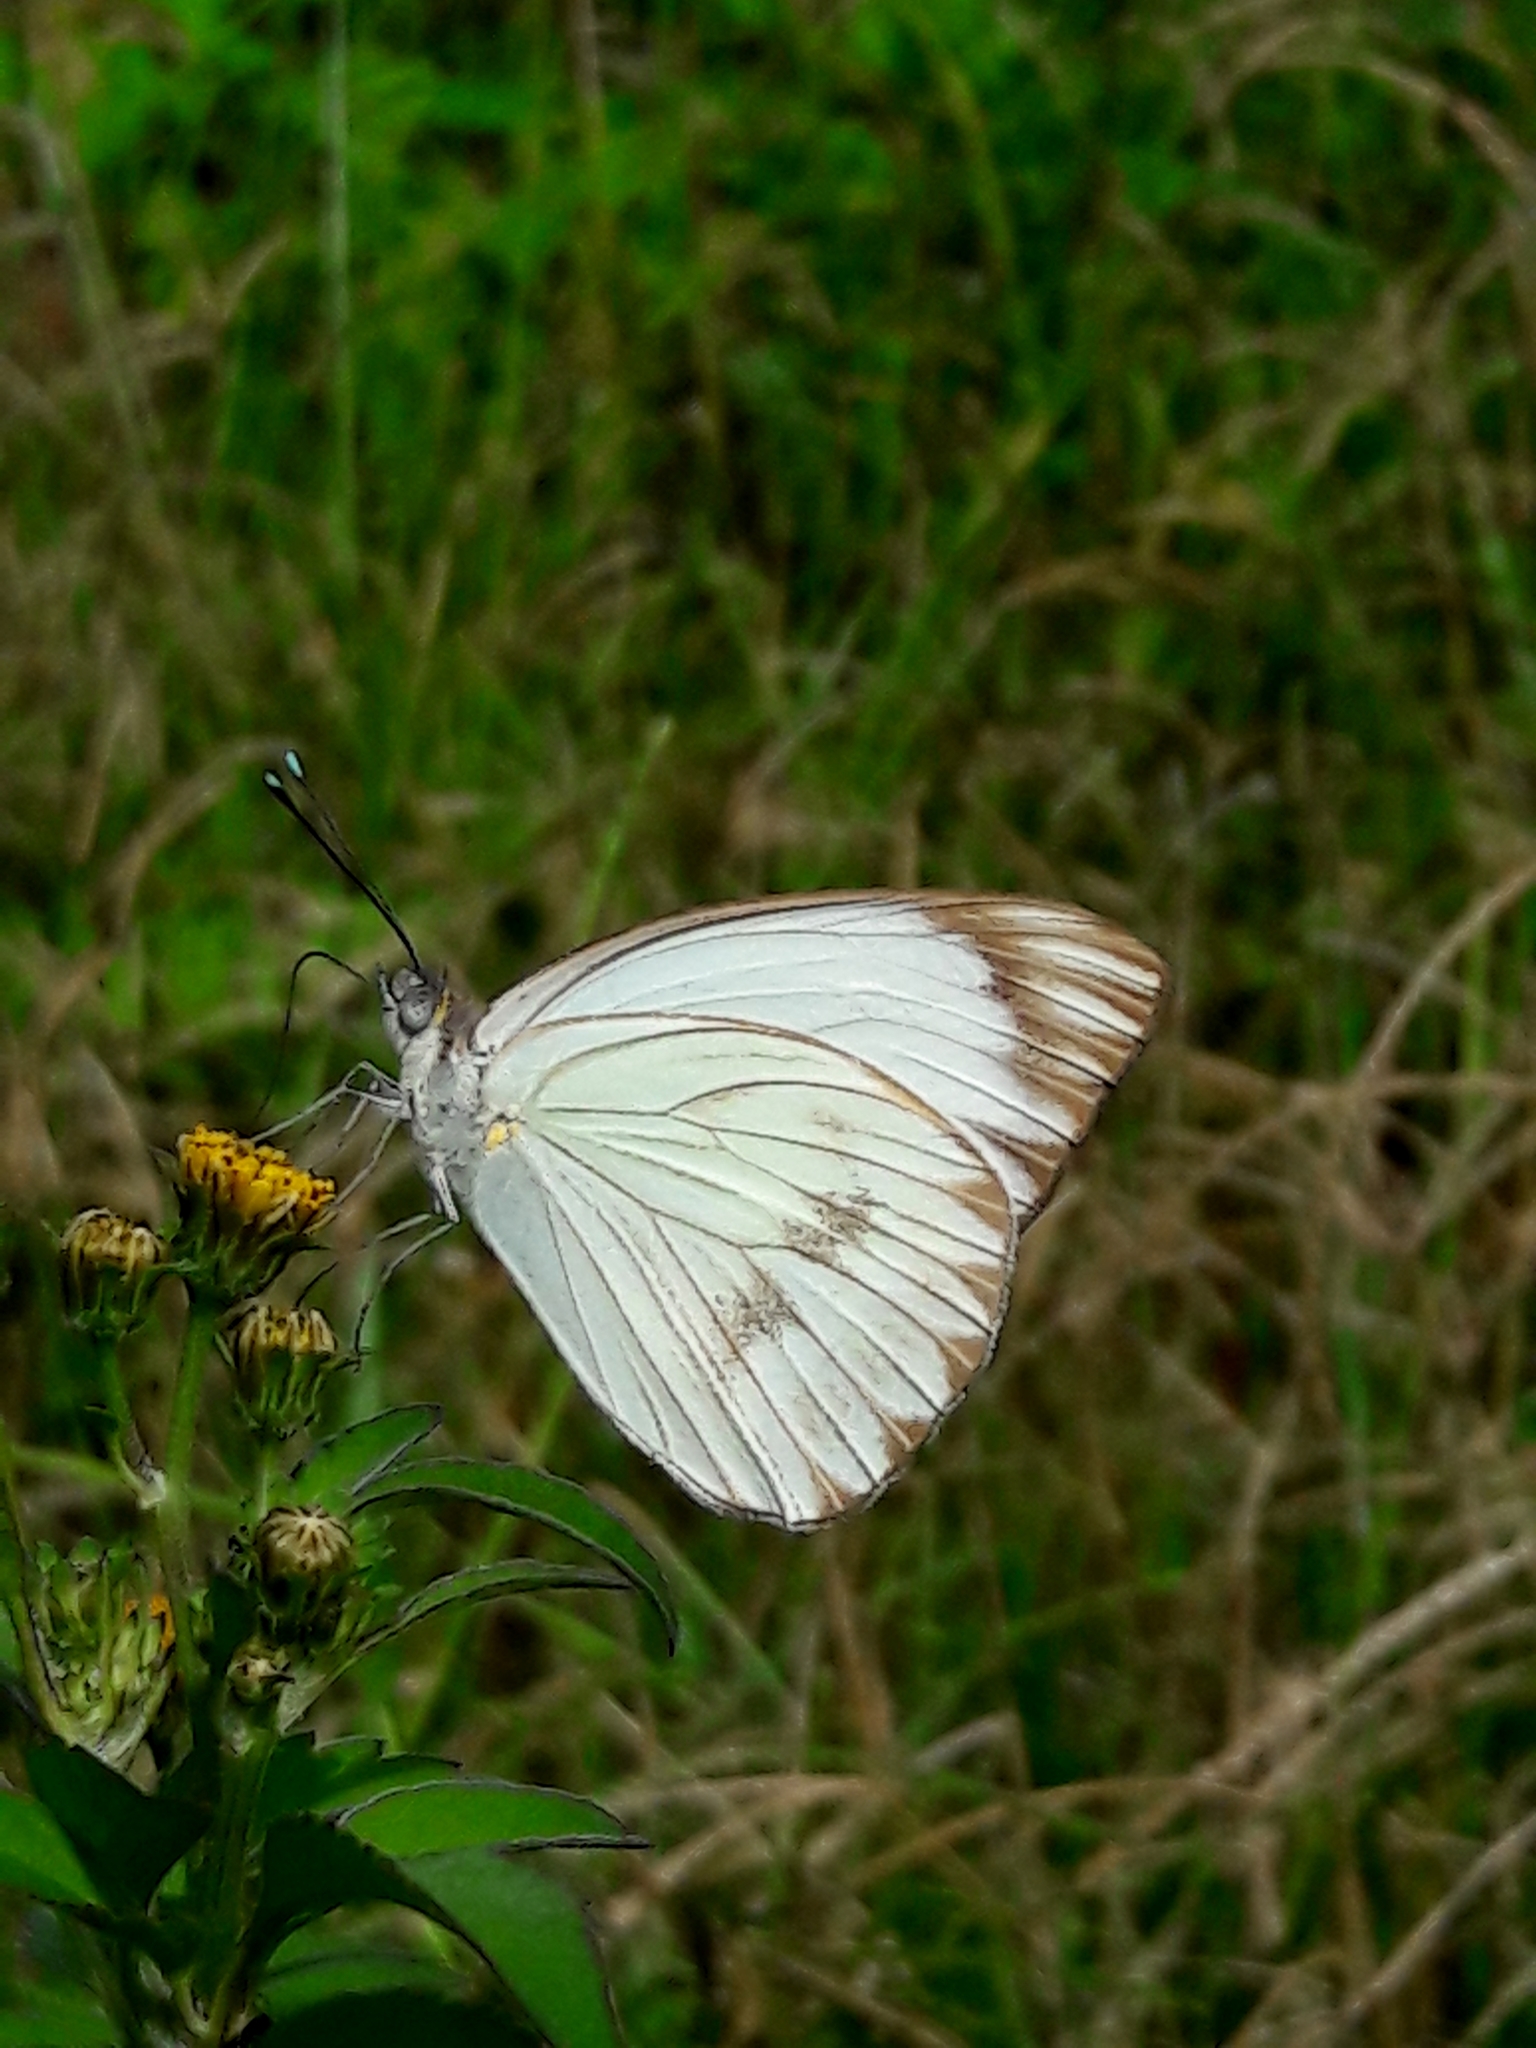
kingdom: Animalia
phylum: Arthropoda
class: Insecta
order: Lepidoptera
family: Pieridae
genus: Ascia
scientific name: Ascia monuste
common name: Great southern white
